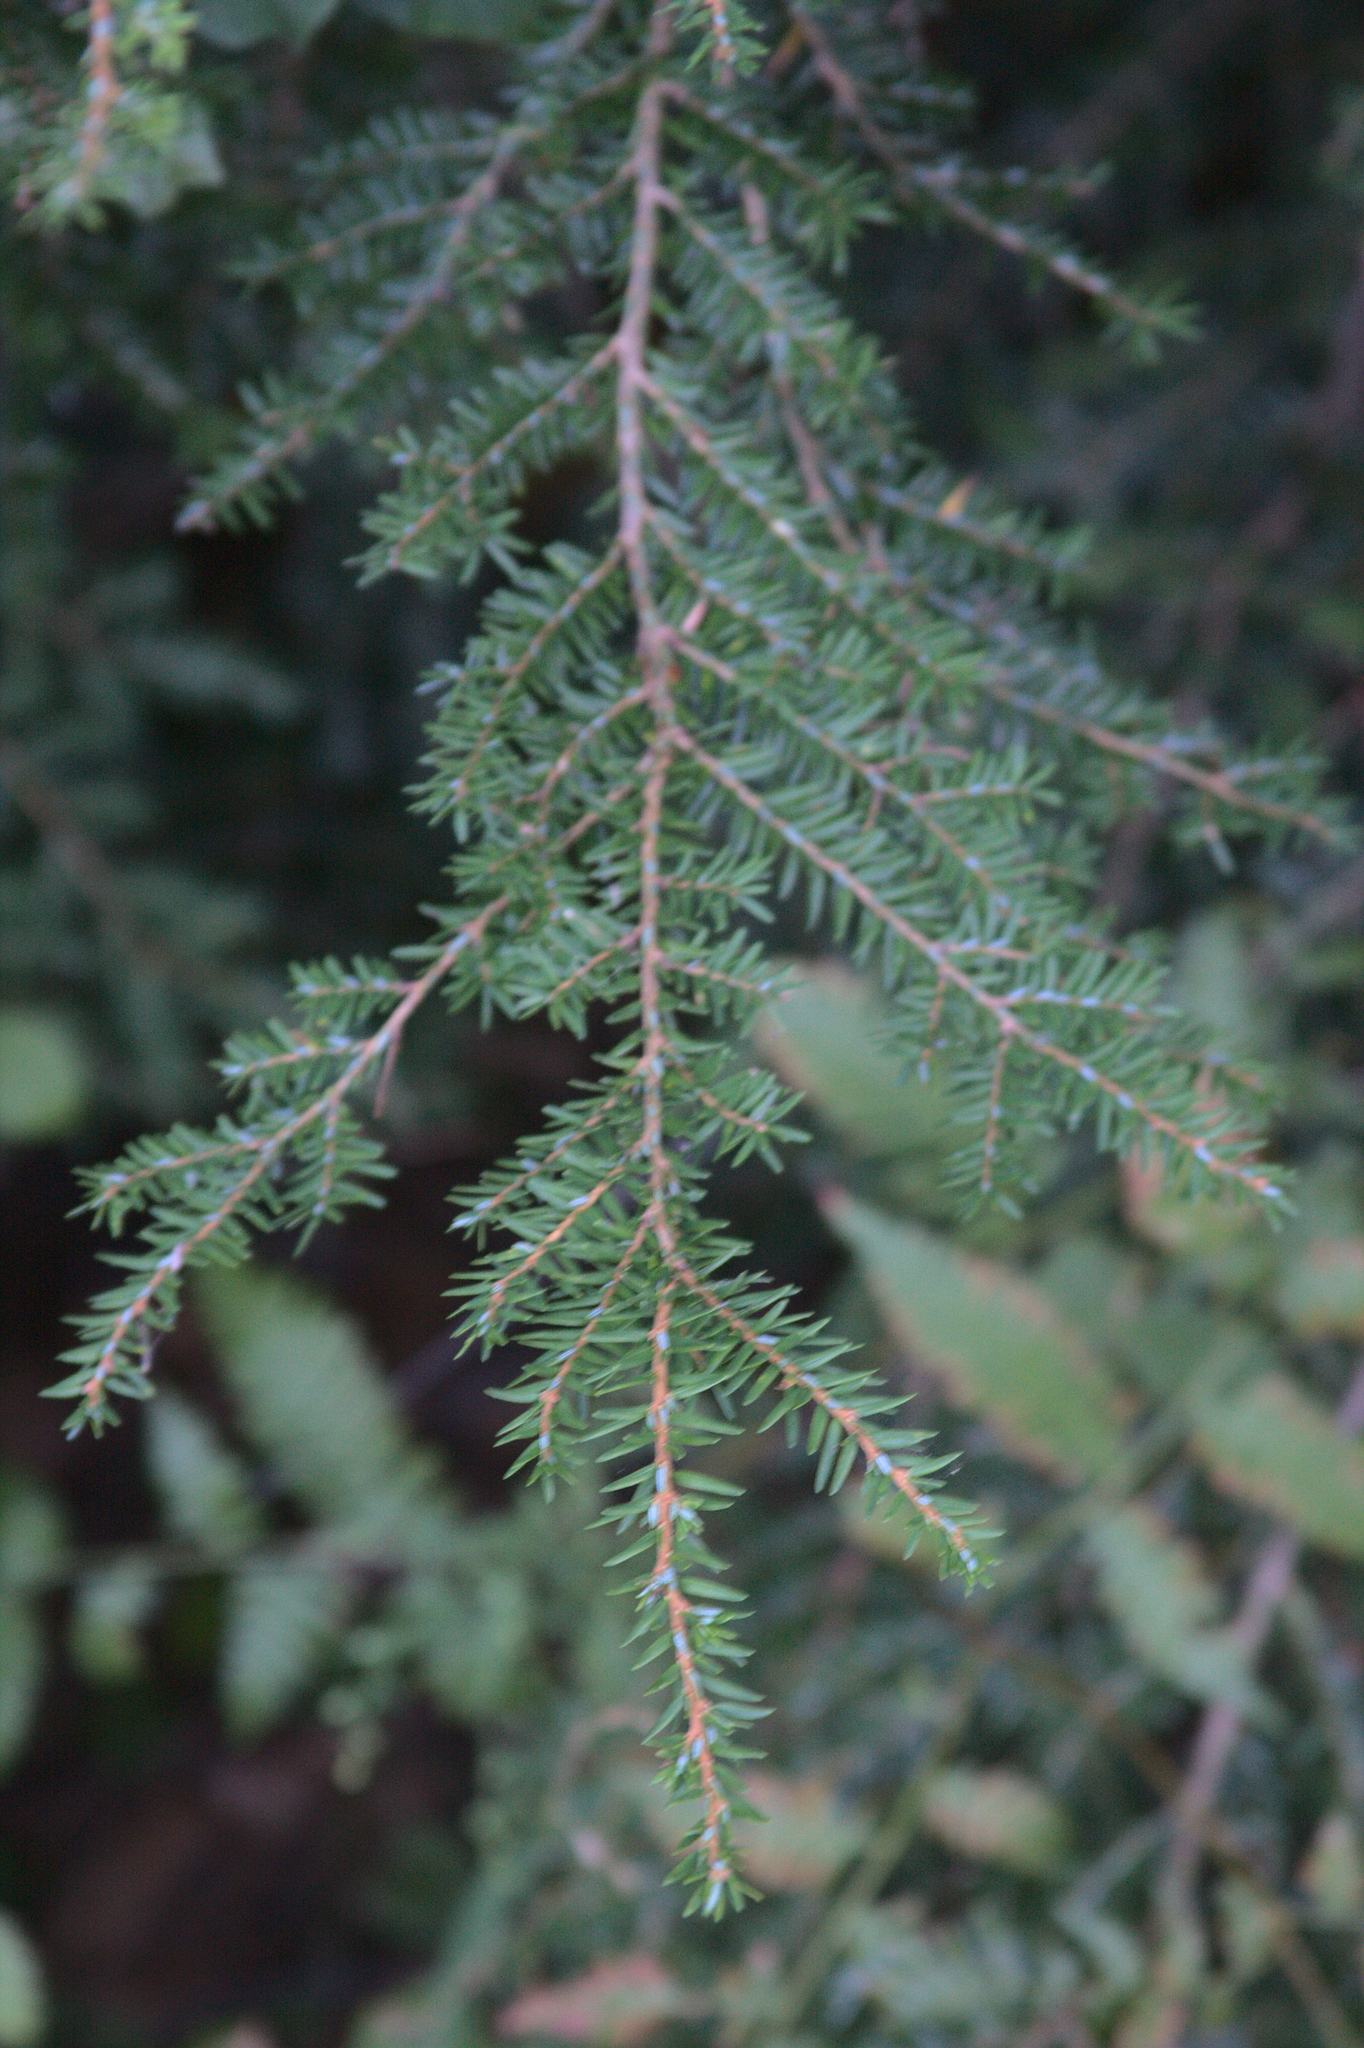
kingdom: Plantae
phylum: Tracheophyta
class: Pinopsida
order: Pinales
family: Pinaceae
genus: Tsuga
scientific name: Tsuga canadensis
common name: Eastern hemlock
